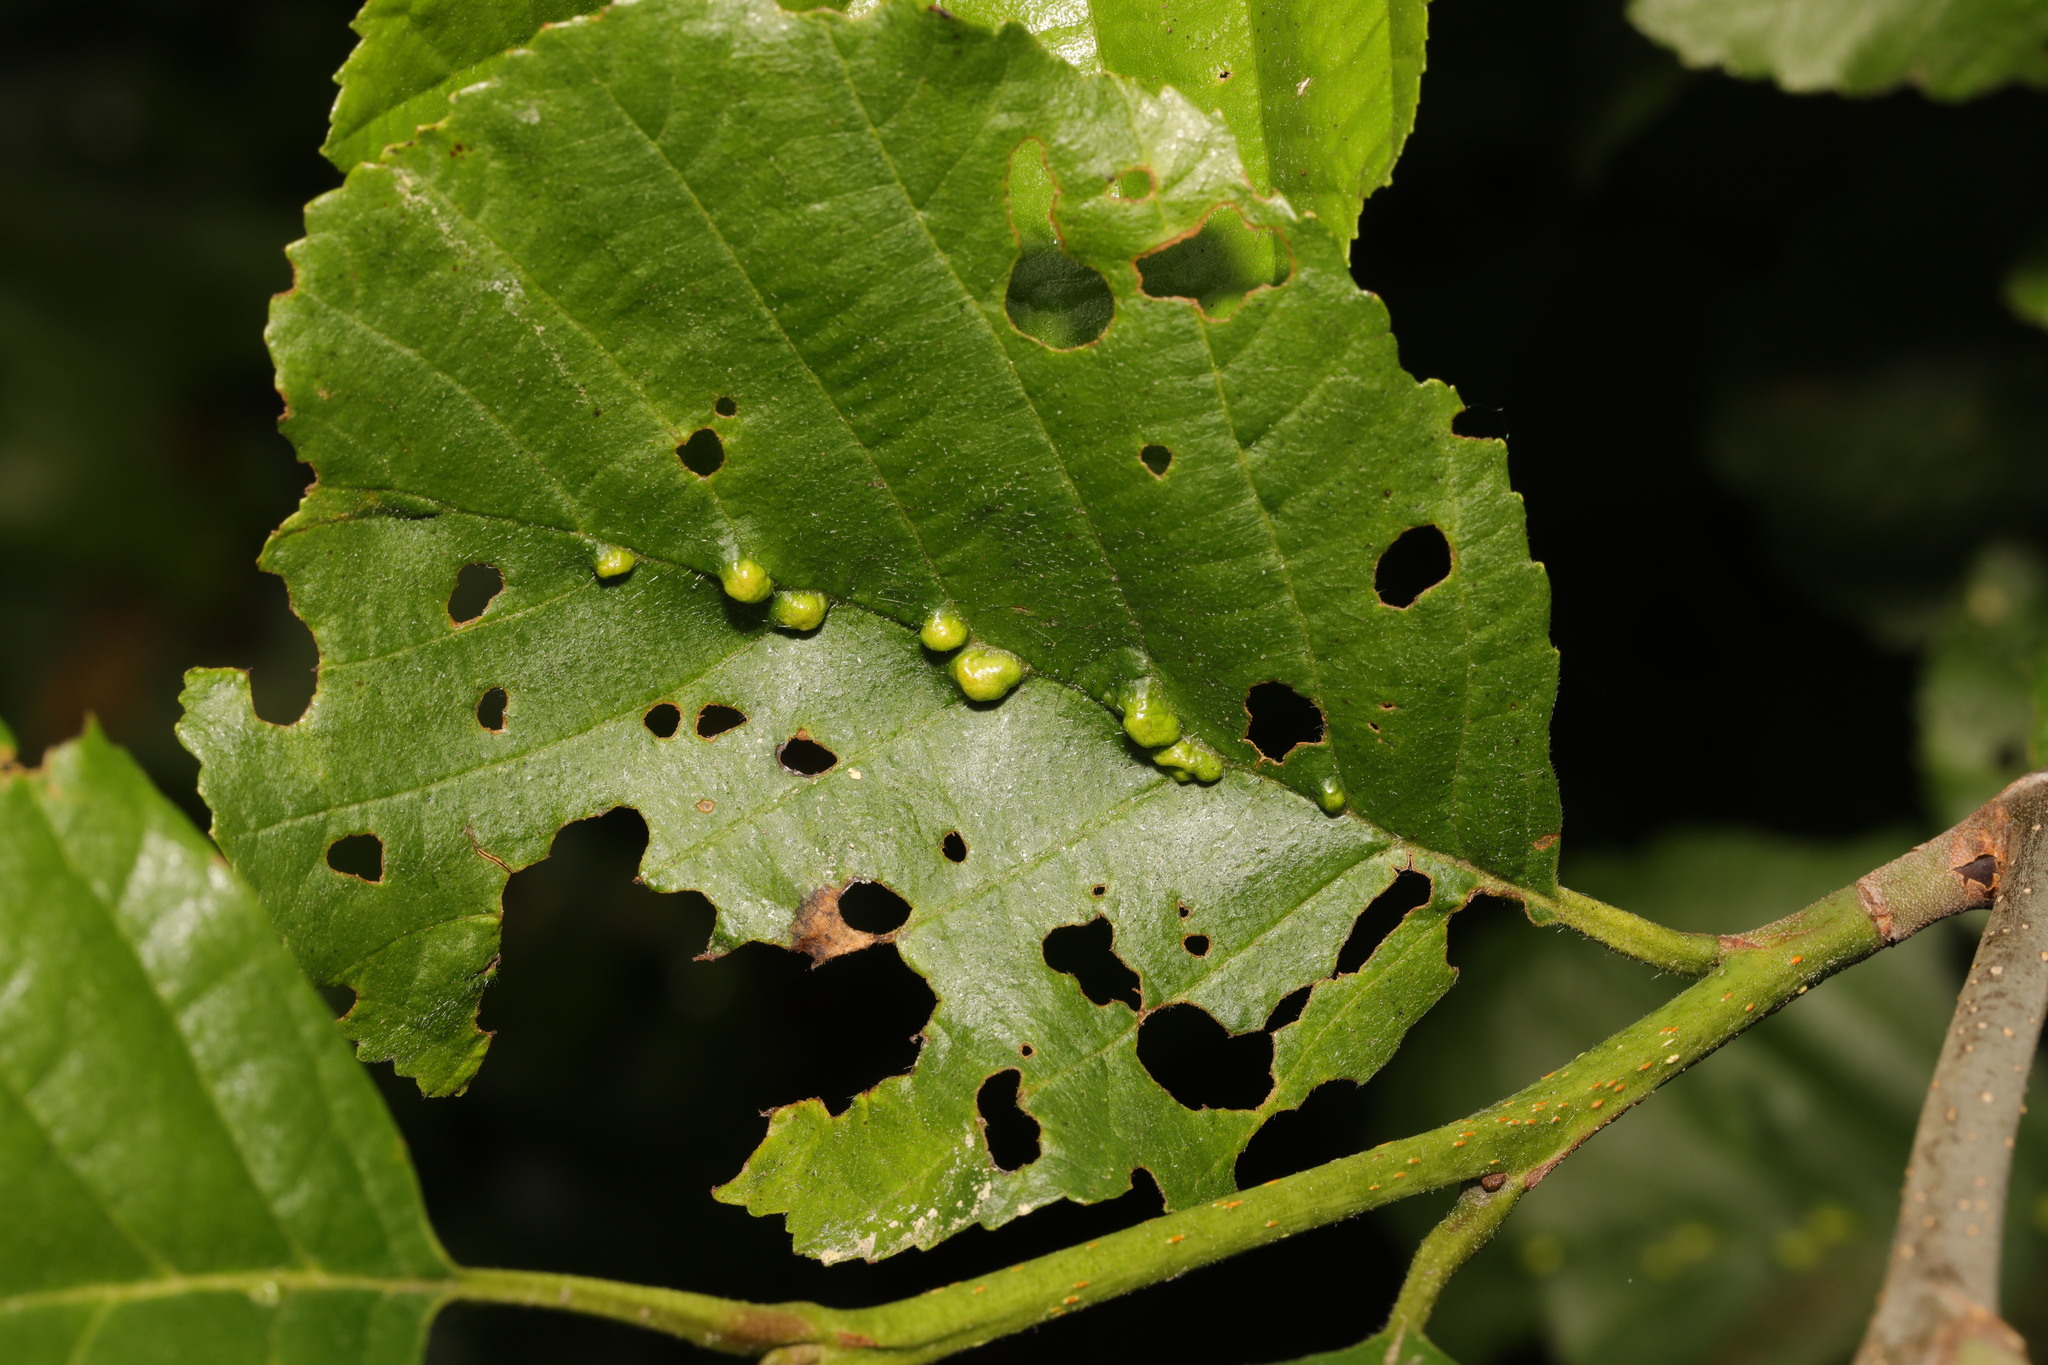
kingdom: Animalia
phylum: Arthropoda
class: Arachnida
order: Trombidiformes
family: Eriophyidae
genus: Eriophyes
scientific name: Eriophyes inangulis
